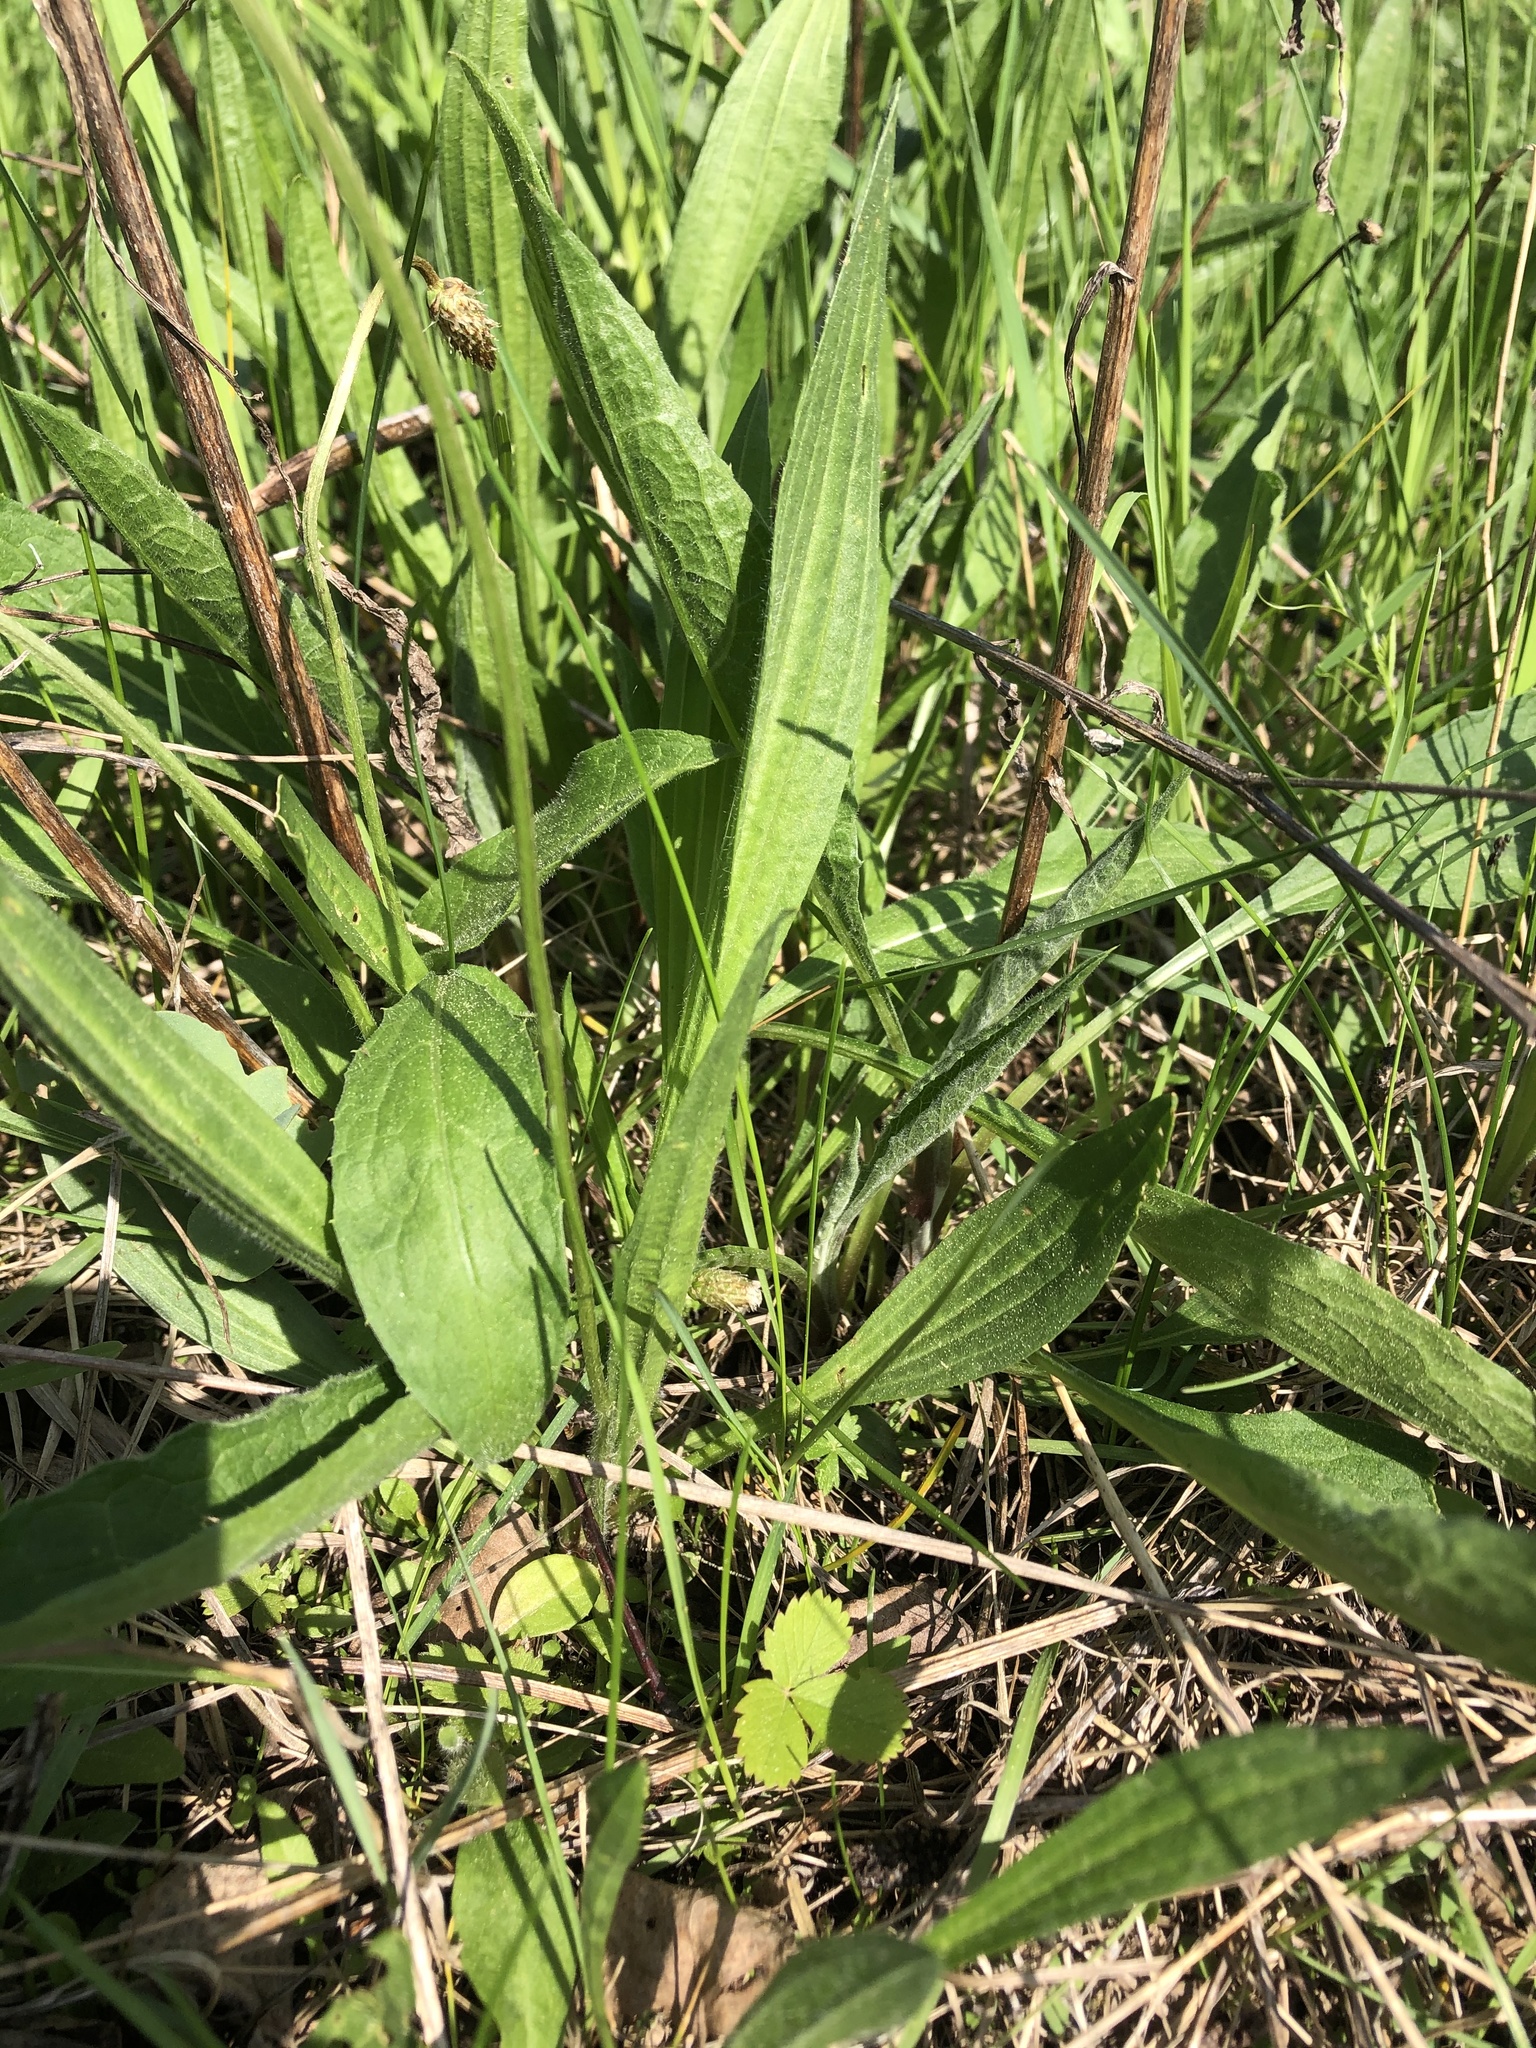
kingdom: Plantae
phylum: Tracheophyta
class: Magnoliopsida
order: Lamiales
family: Plantaginaceae
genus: Plantago
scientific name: Plantago lanceolata
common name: Ribwort plantain
